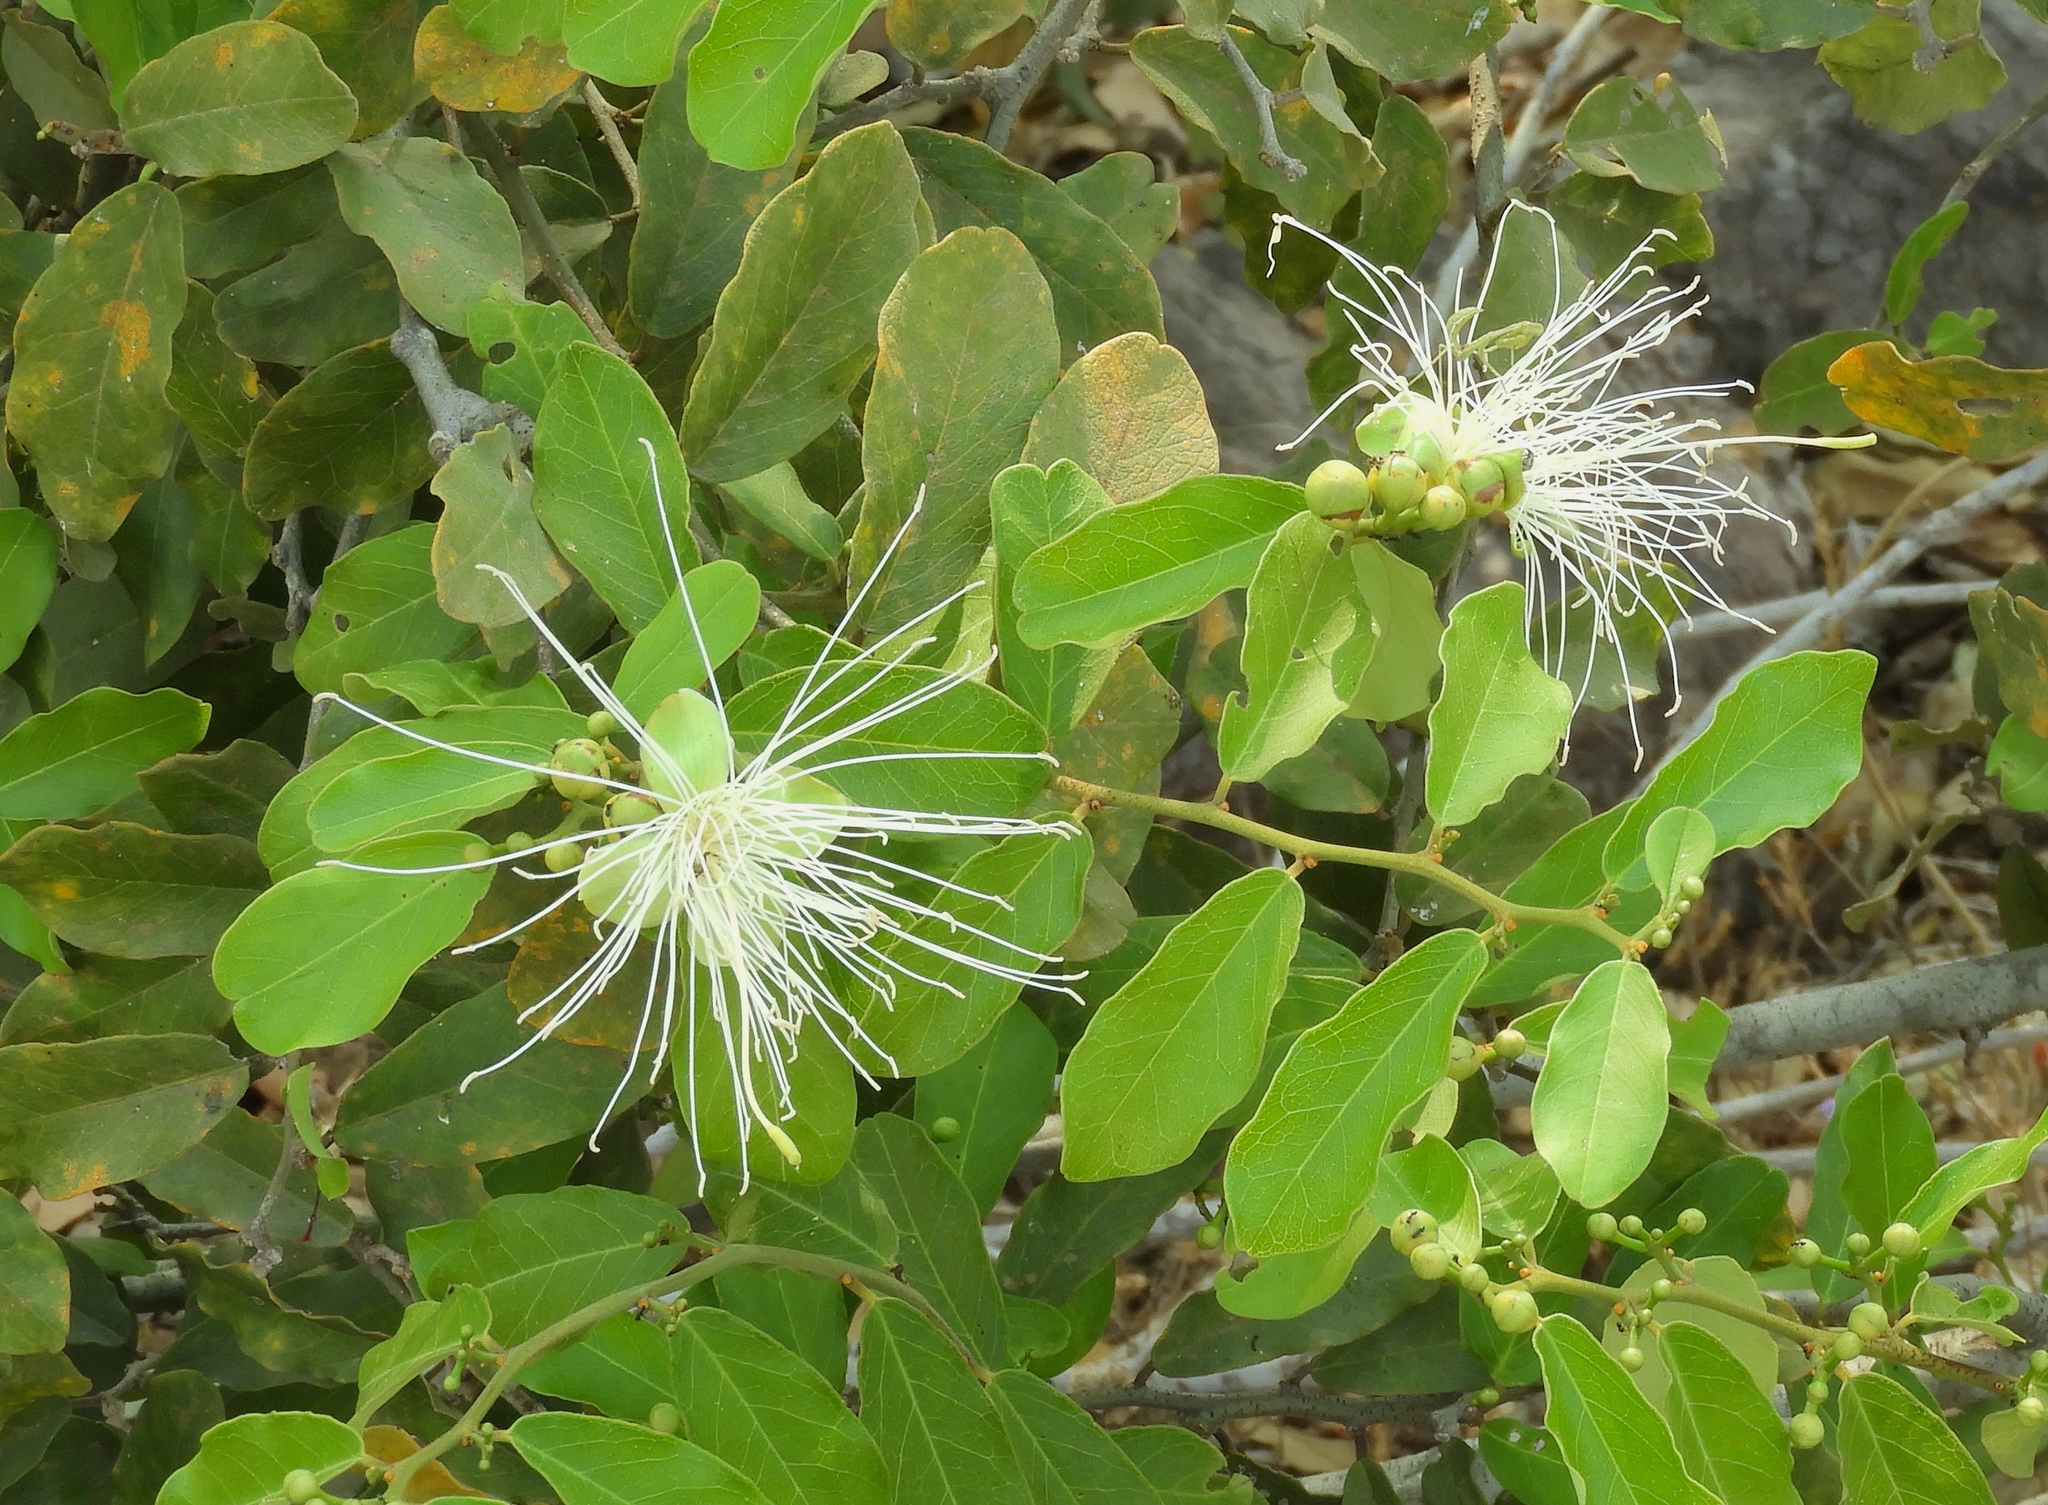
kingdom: Plantae
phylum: Tracheophyta
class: Magnoliopsida
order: Brassicales
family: Capparaceae
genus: Cynophalla
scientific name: Cynophalla flexuosa
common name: Capertree
